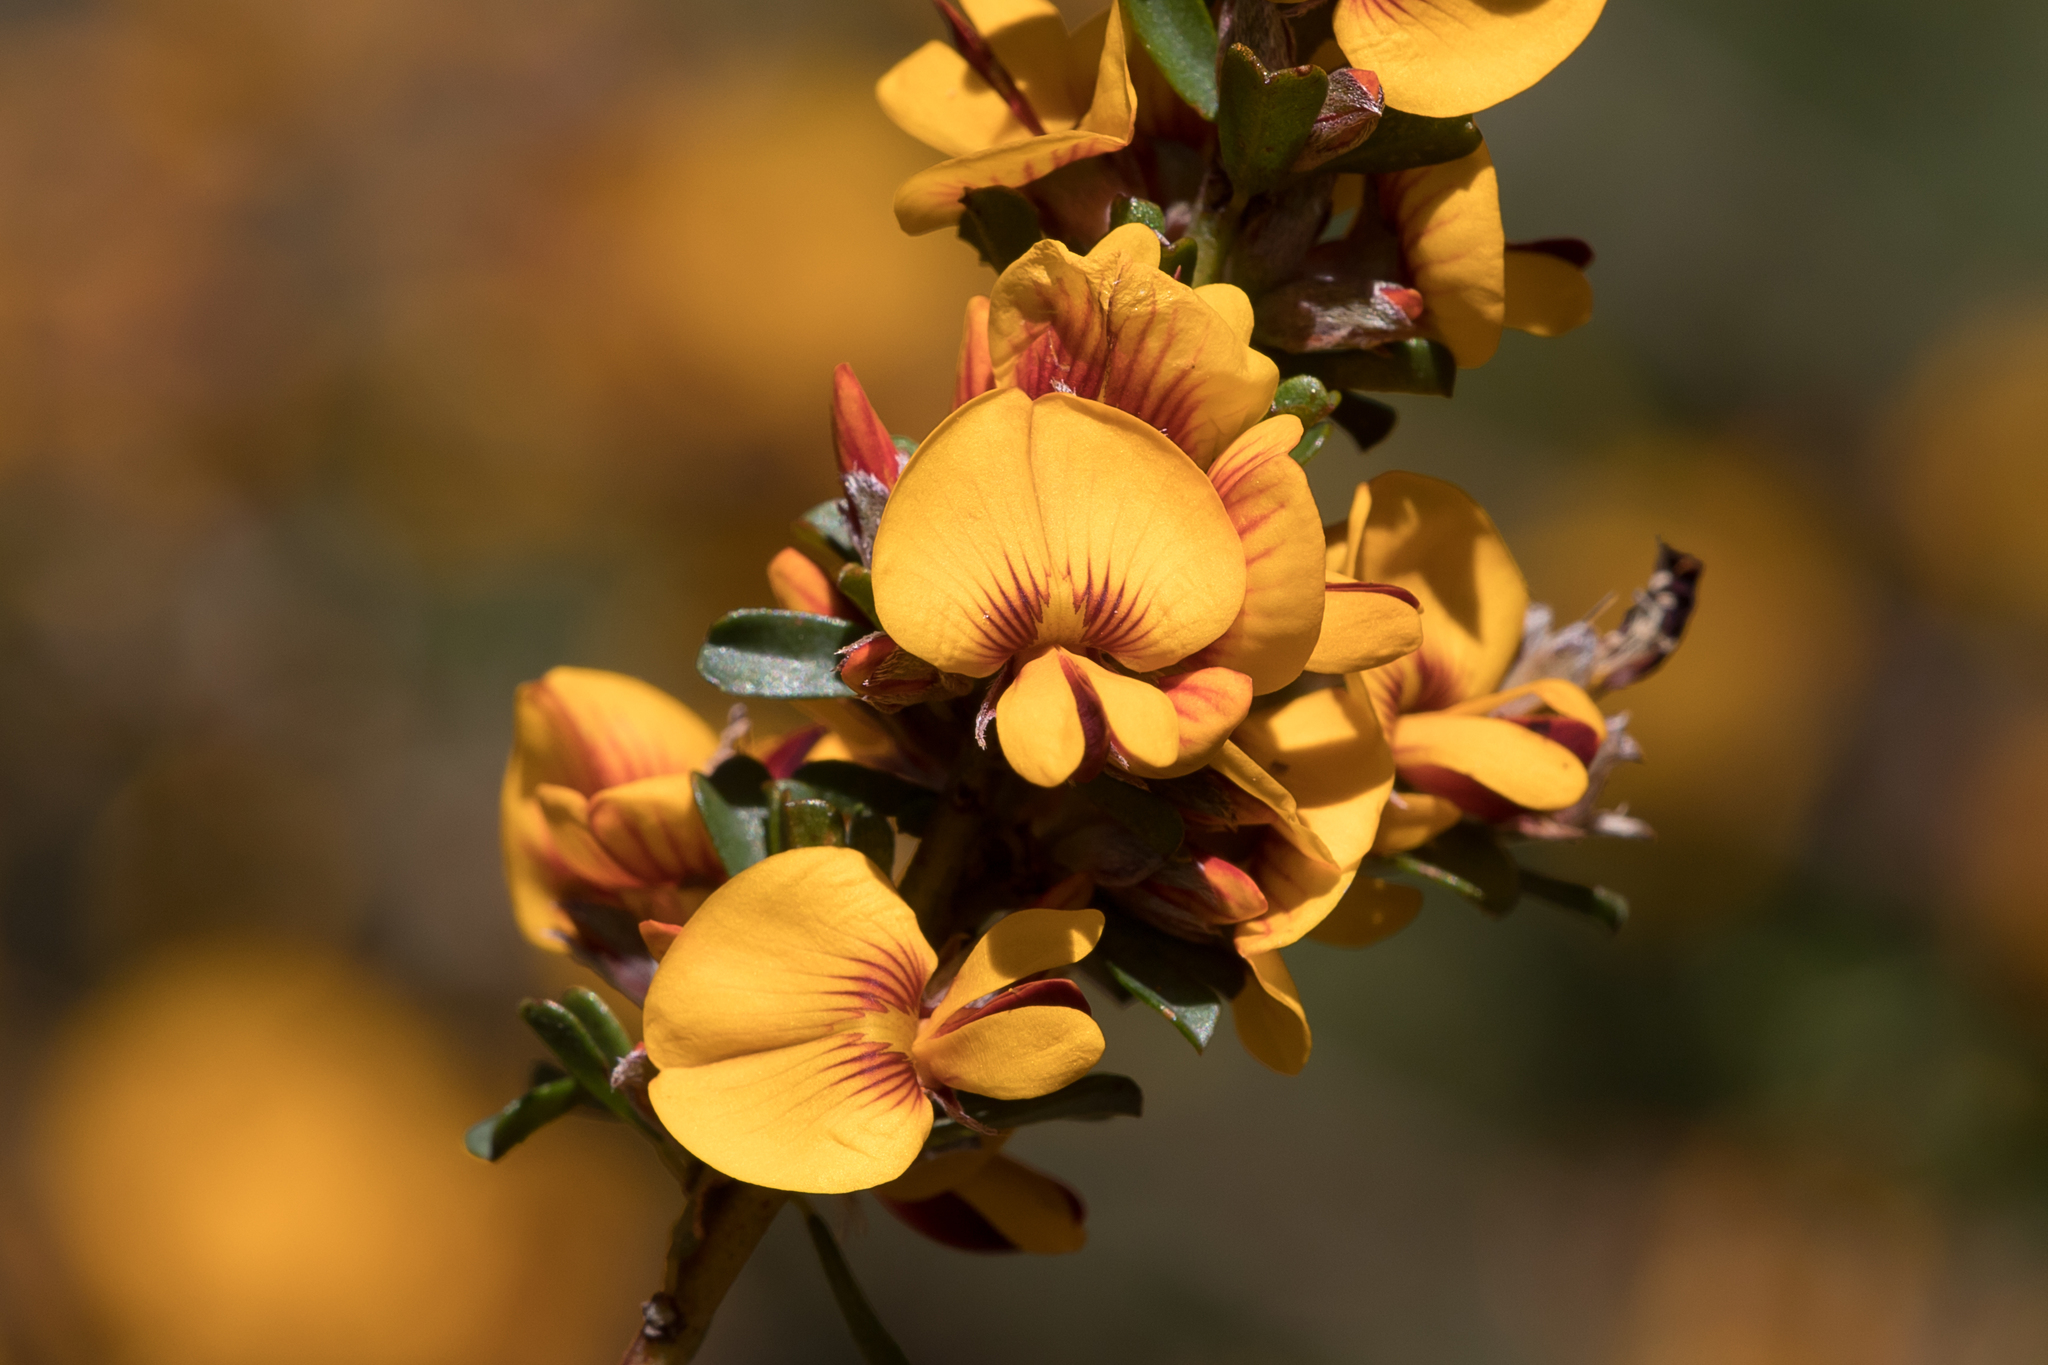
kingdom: Plantae
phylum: Tracheophyta
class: Magnoliopsida
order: Fabales
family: Fabaceae
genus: Pultenaea
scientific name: Pultenaea largiflorens
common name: Twiggy bush-pea
